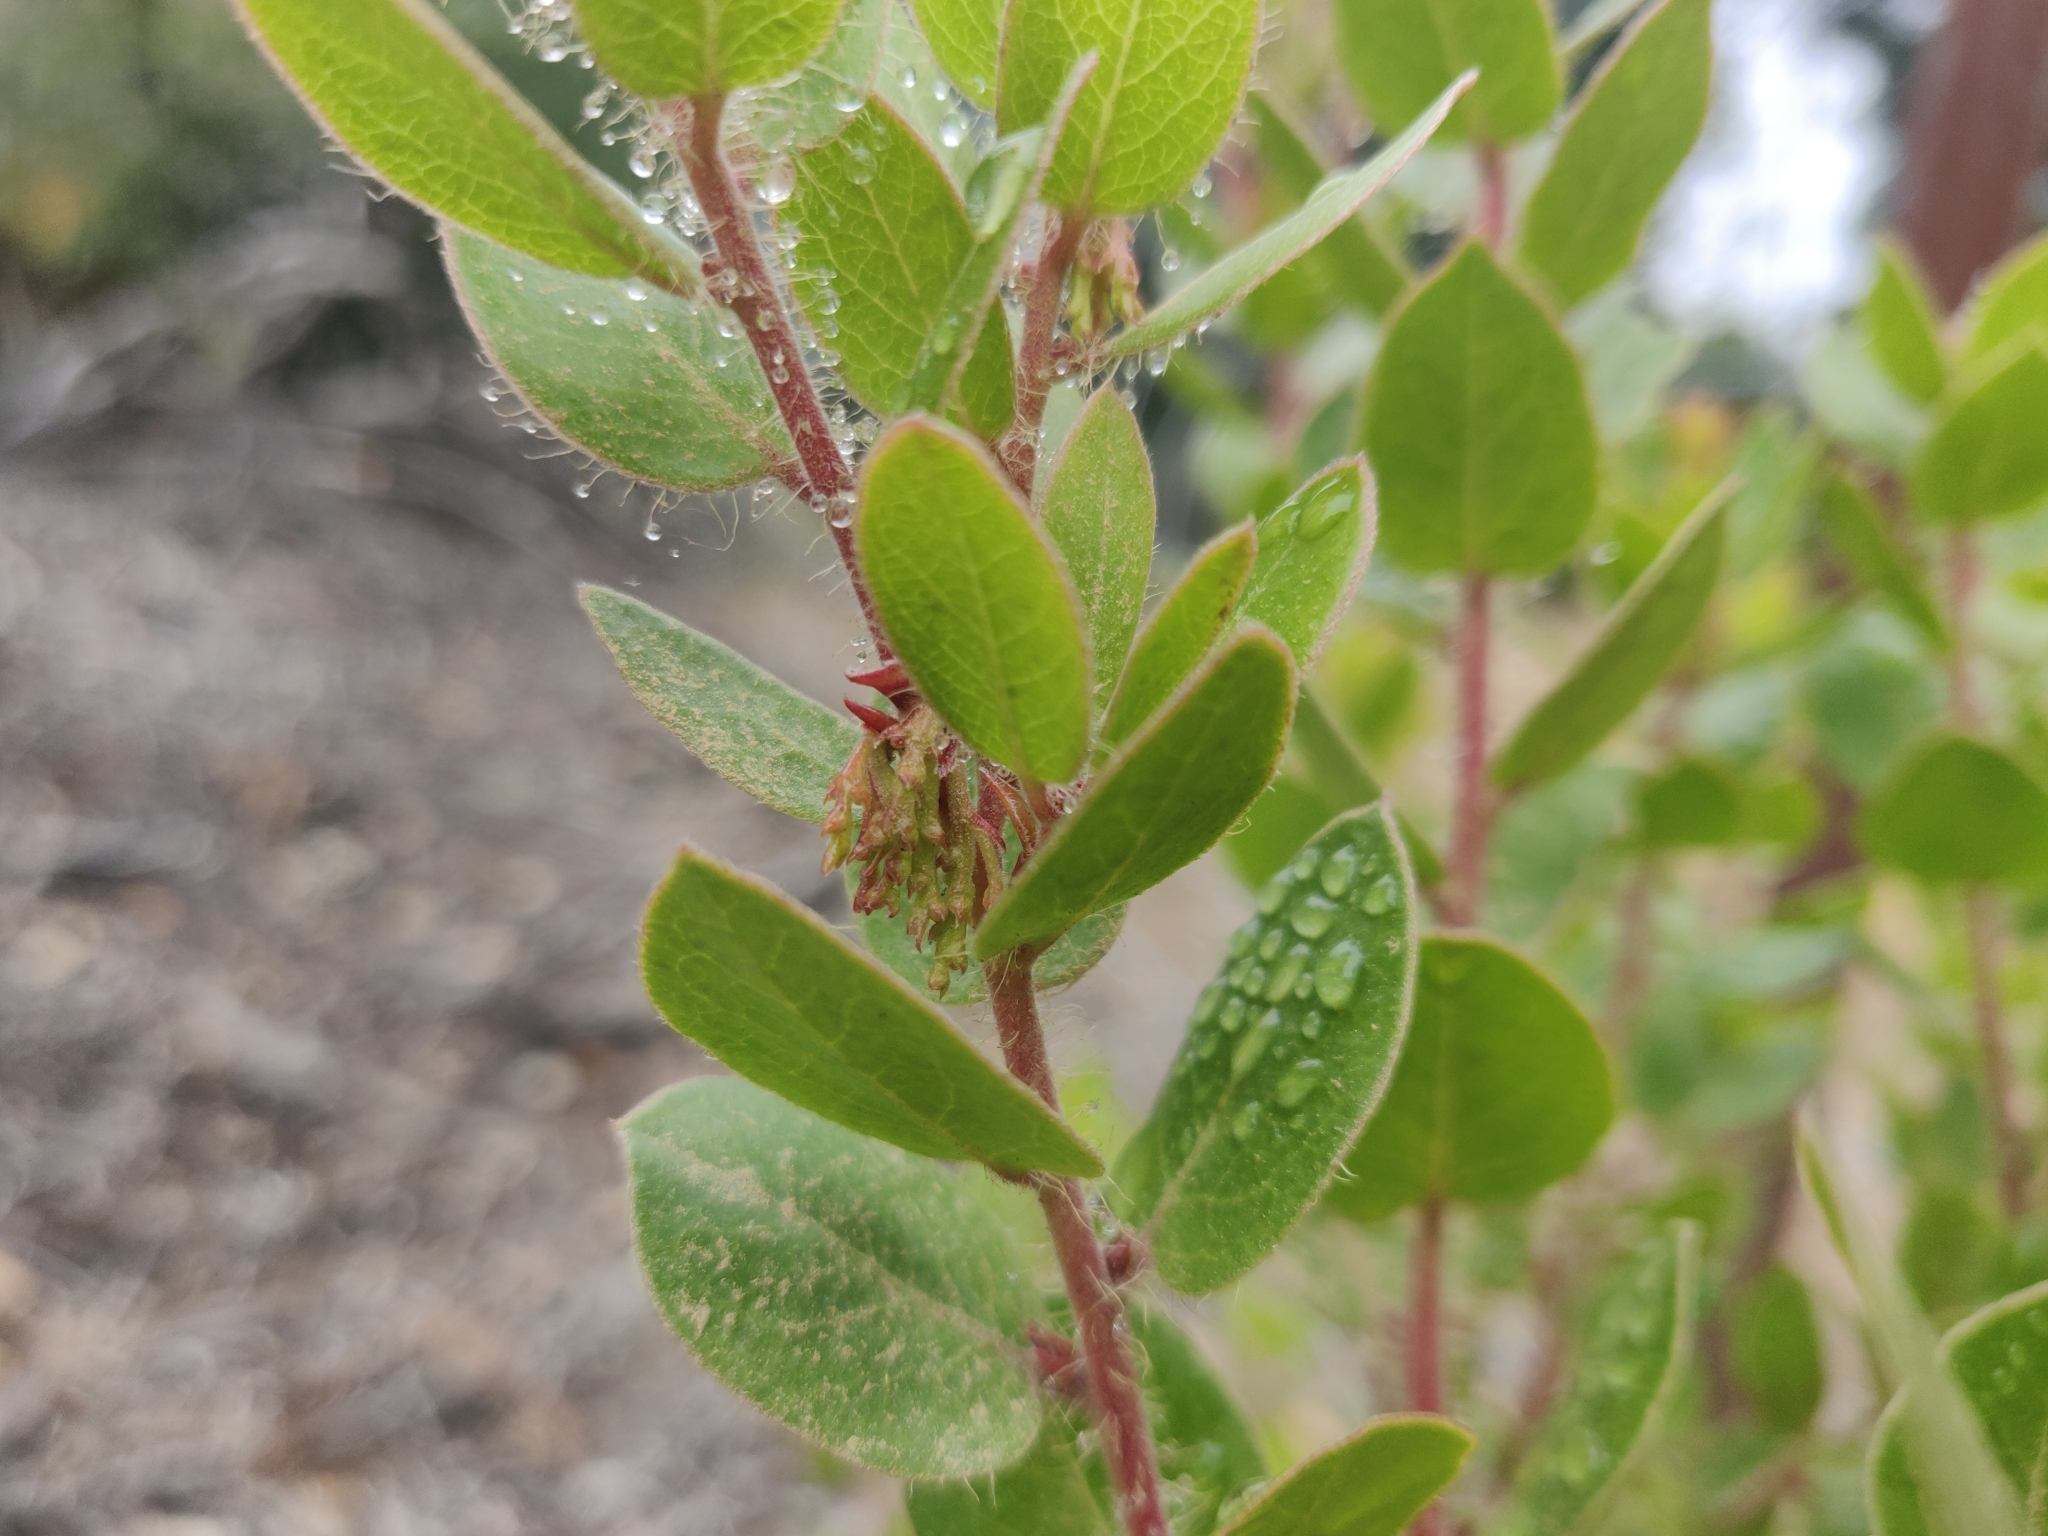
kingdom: Plantae
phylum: Tracheophyta
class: Magnoliopsida
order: Ericales
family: Ericaceae
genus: Arctostaphylos
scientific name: Arctostaphylos nummularia
